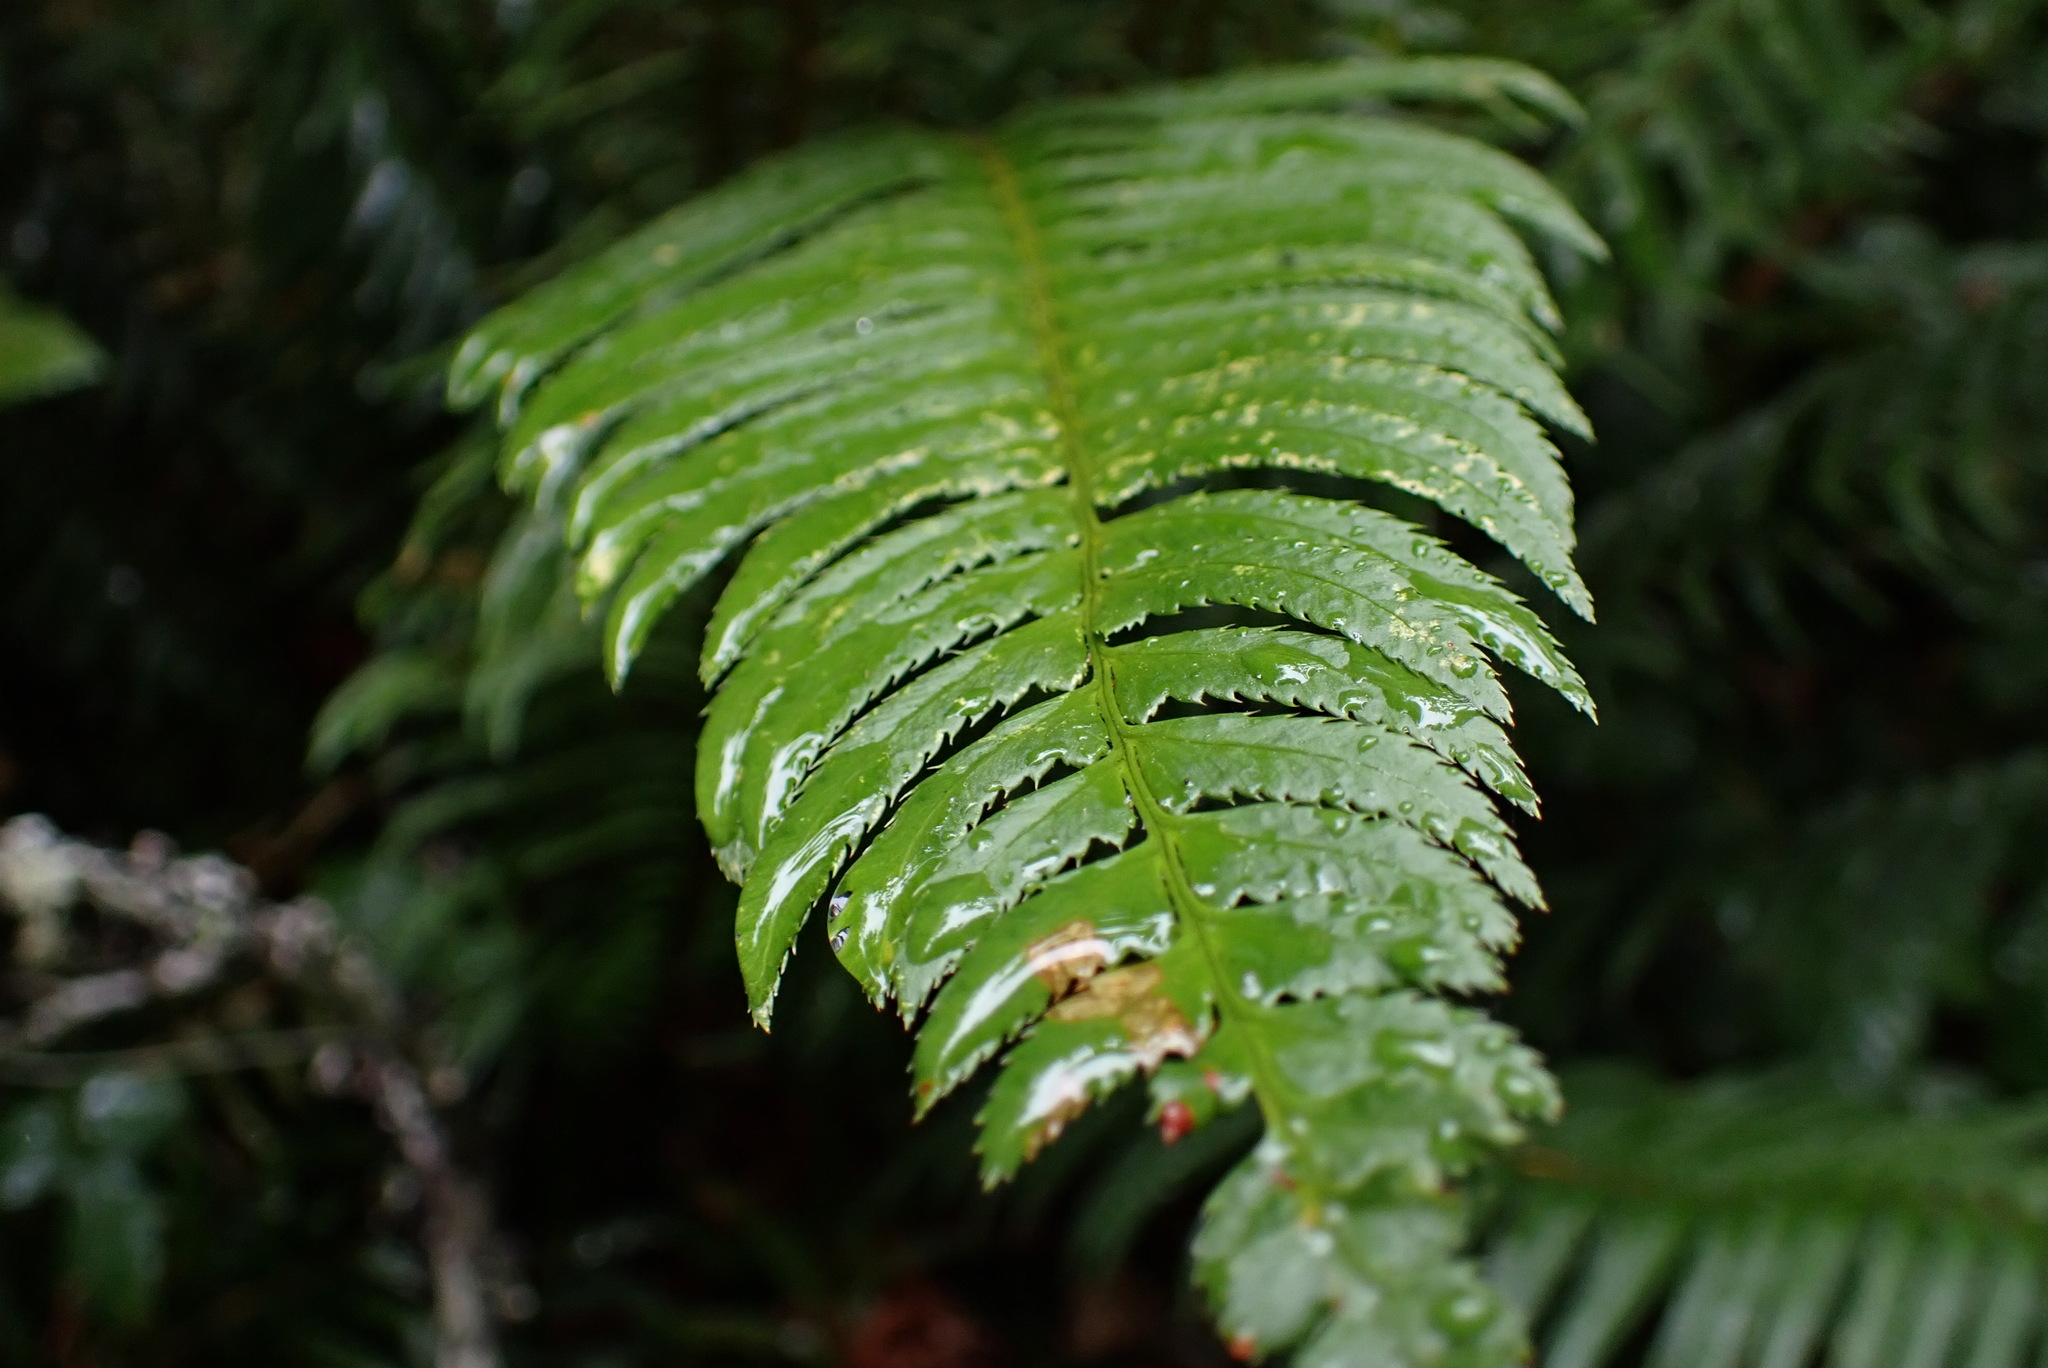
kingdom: Plantae
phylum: Tracheophyta
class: Polypodiopsida
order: Polypodiales
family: Dryopteridaceae
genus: Polystichum
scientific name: Polystichum munitum
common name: Western sword-fern
